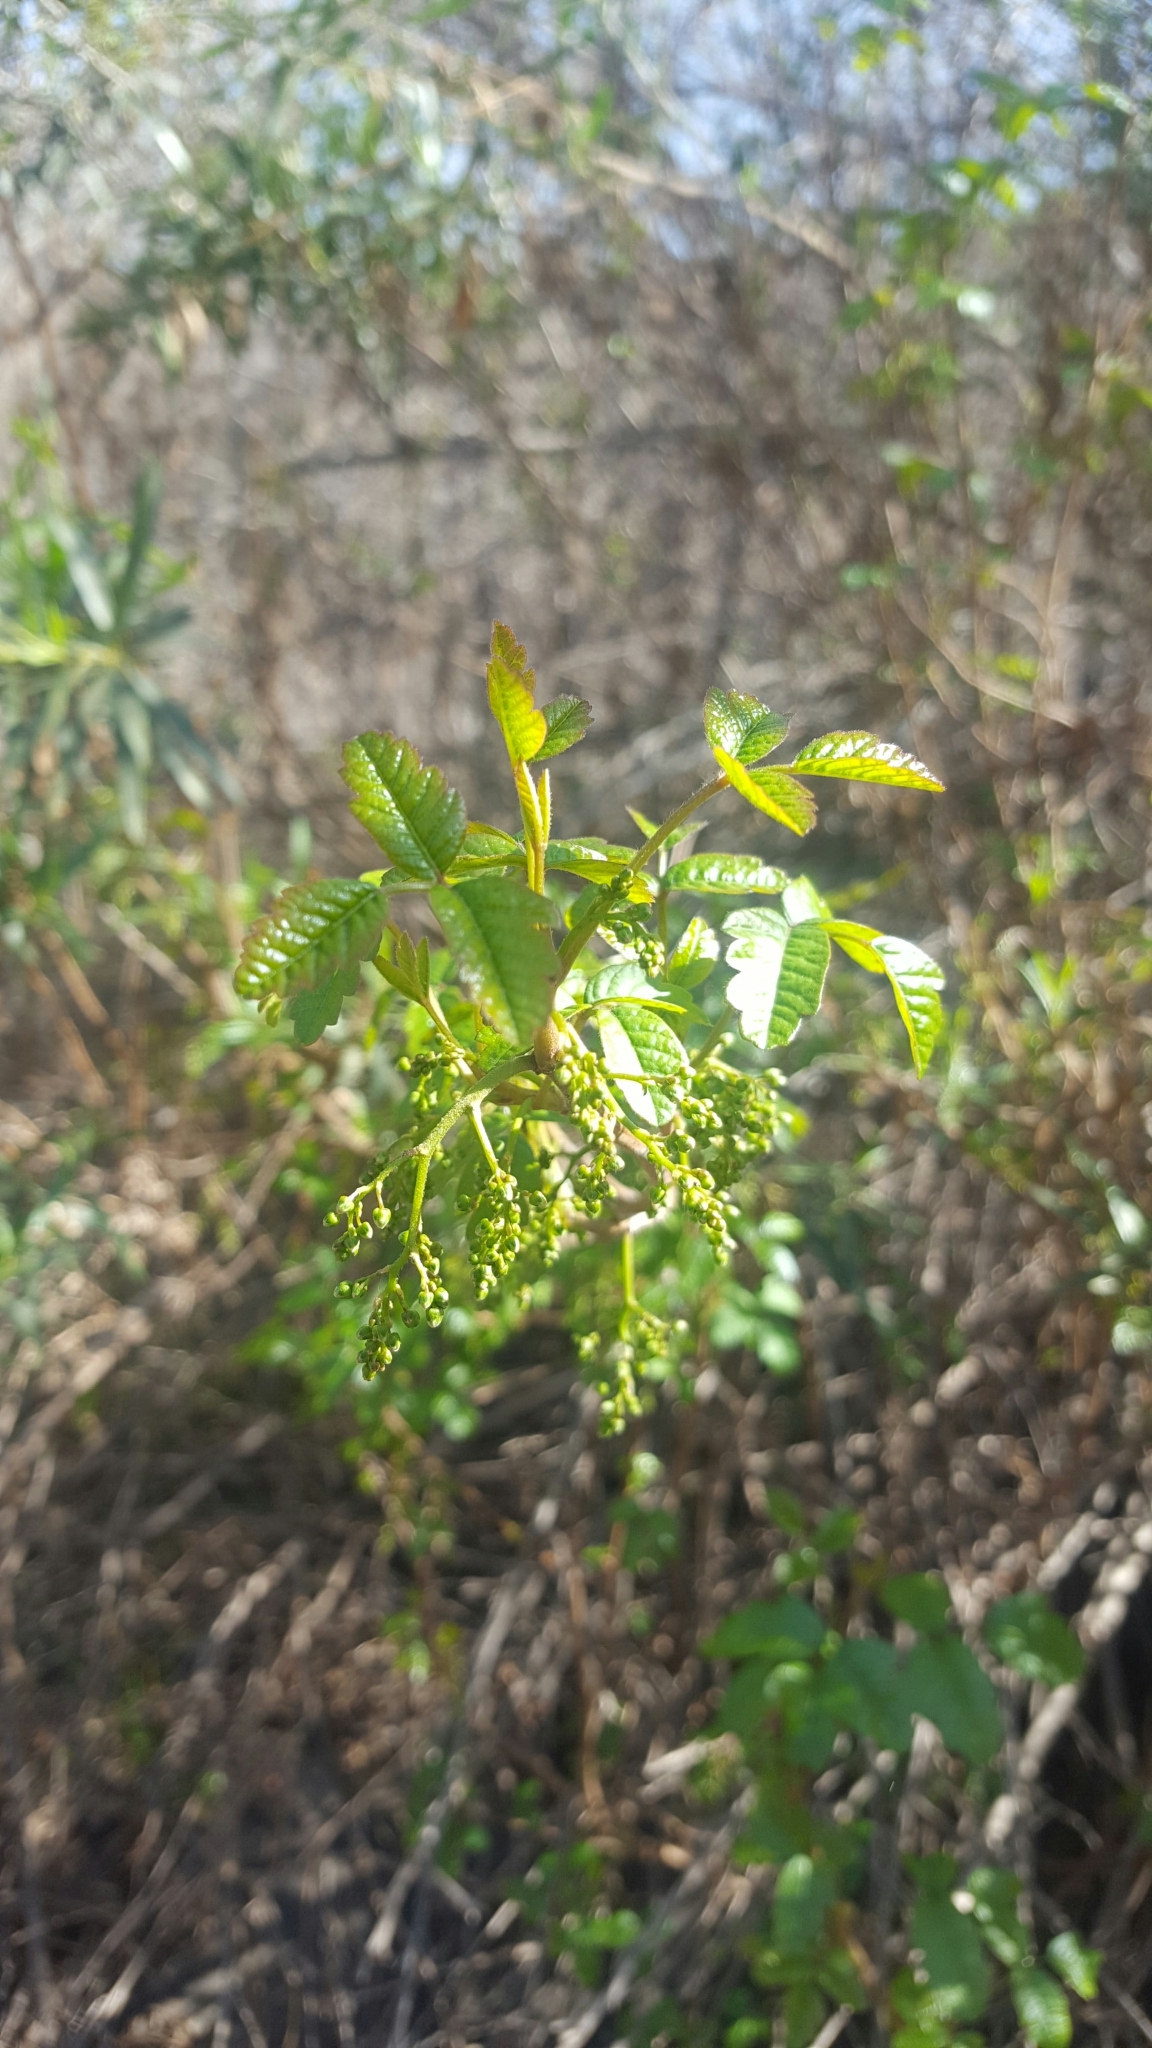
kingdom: Plantae
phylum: Tracheophyta
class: Magnoliopsida
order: Sapindales
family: Anacardiaceae
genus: Toxicodendron
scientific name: Toxicodendron diversilobum
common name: Pacific poison-oak
